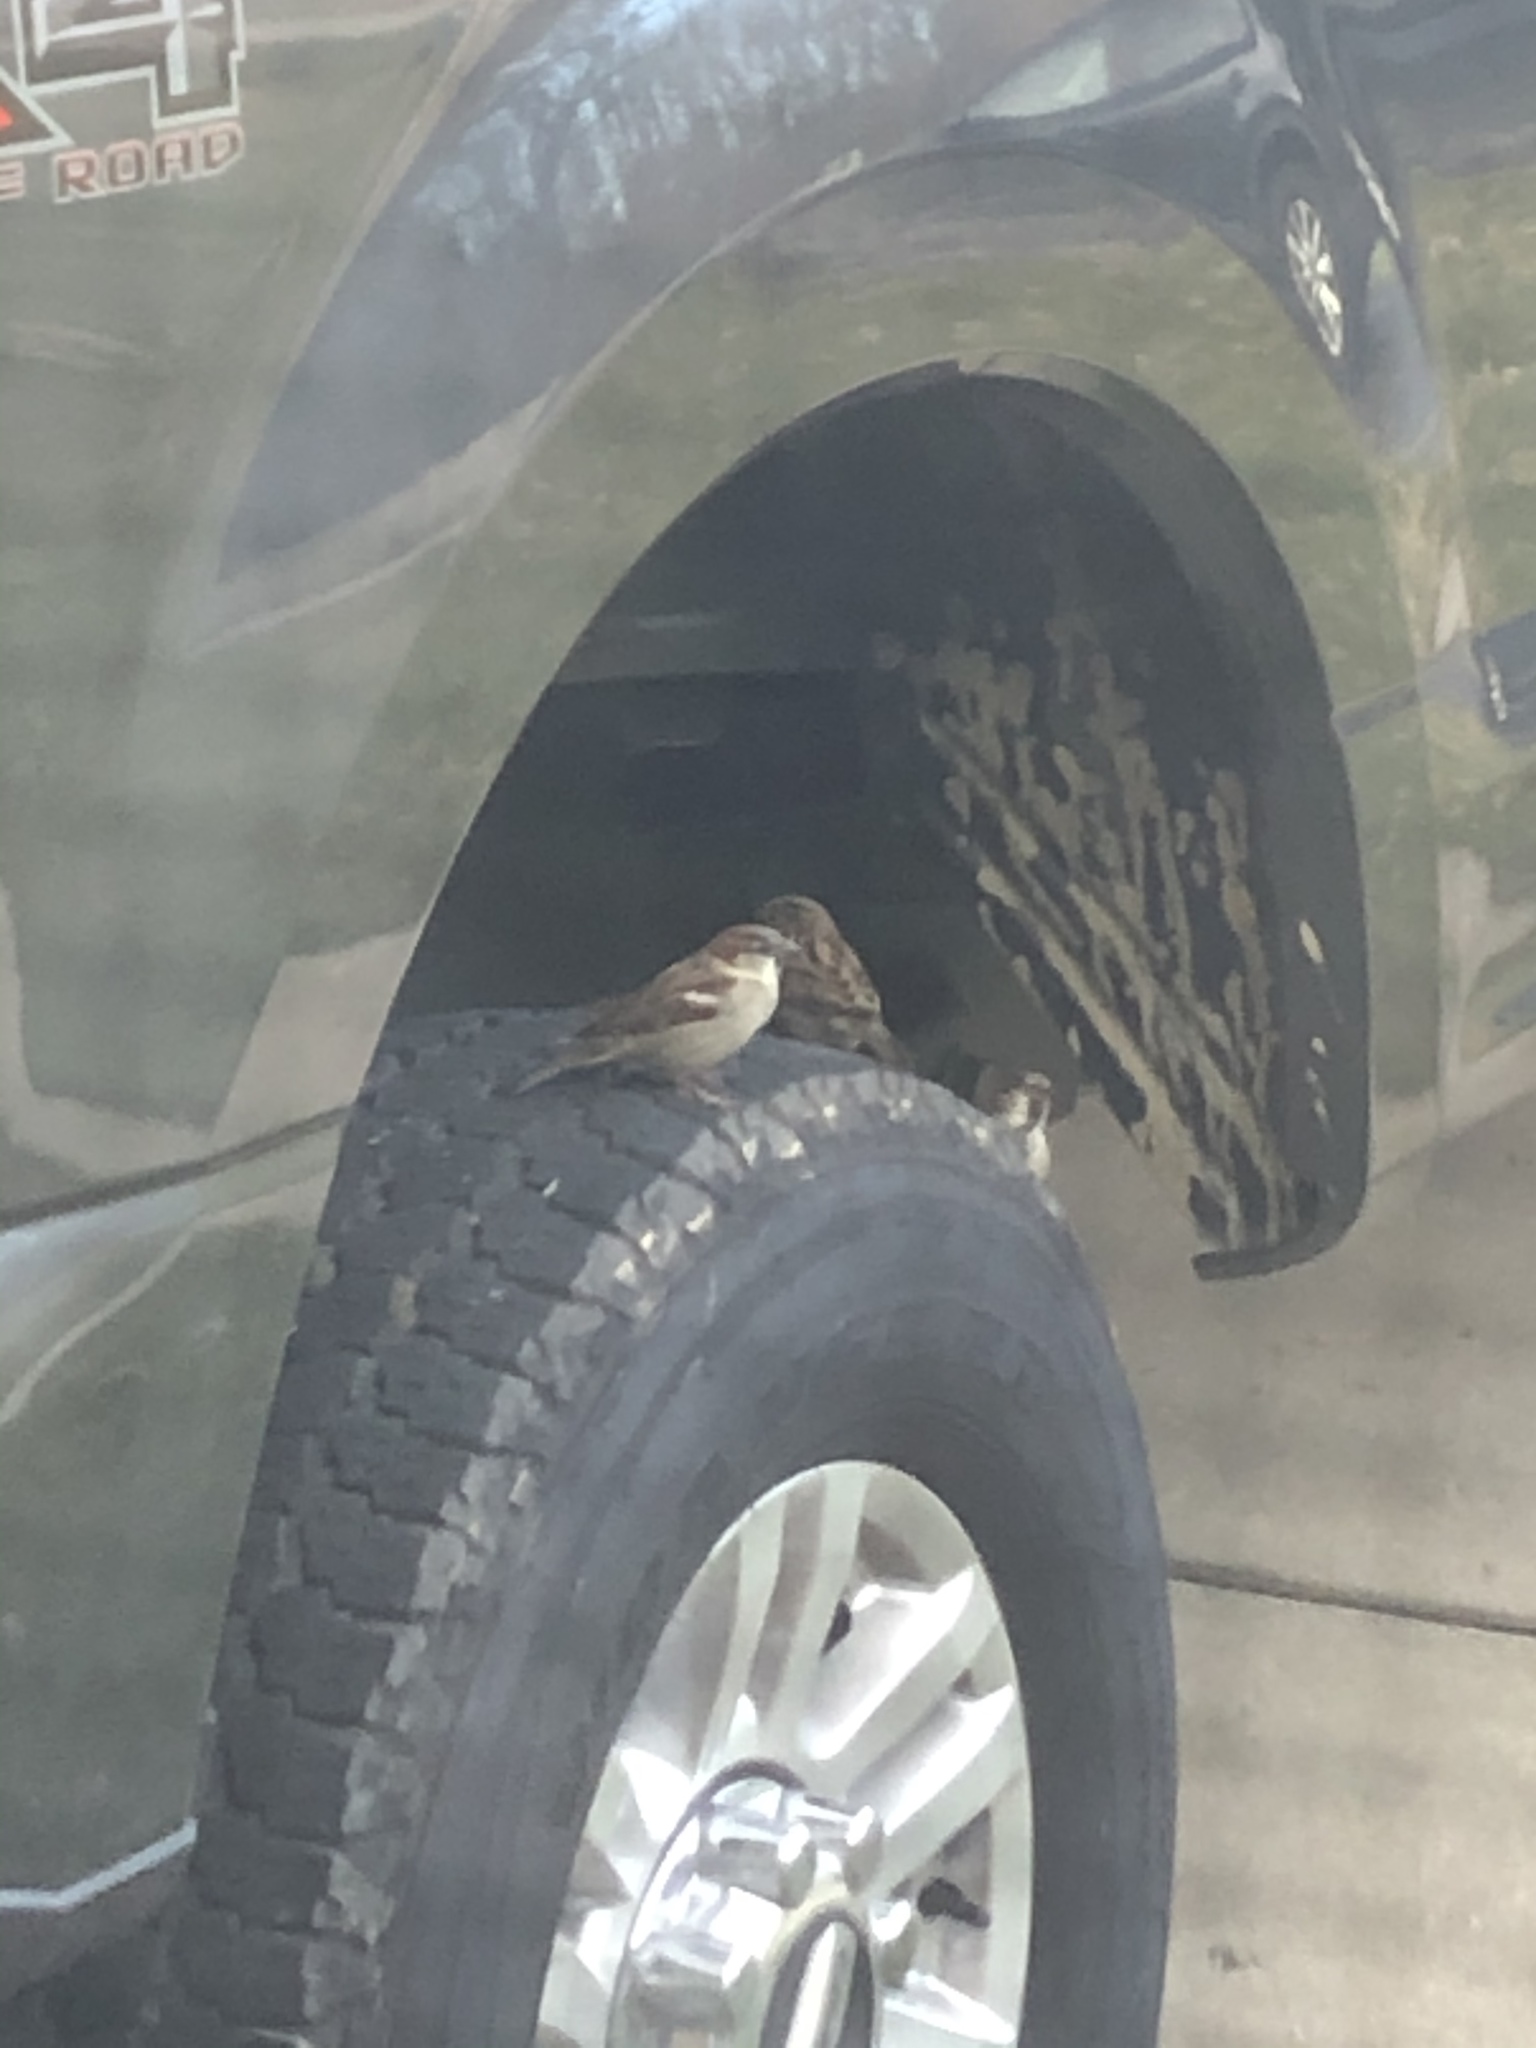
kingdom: Animalia
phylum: Chordata
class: Aves
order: Passeriformes
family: Passeridae
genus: Passer
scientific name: Passer domesticus
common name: House sparrow
